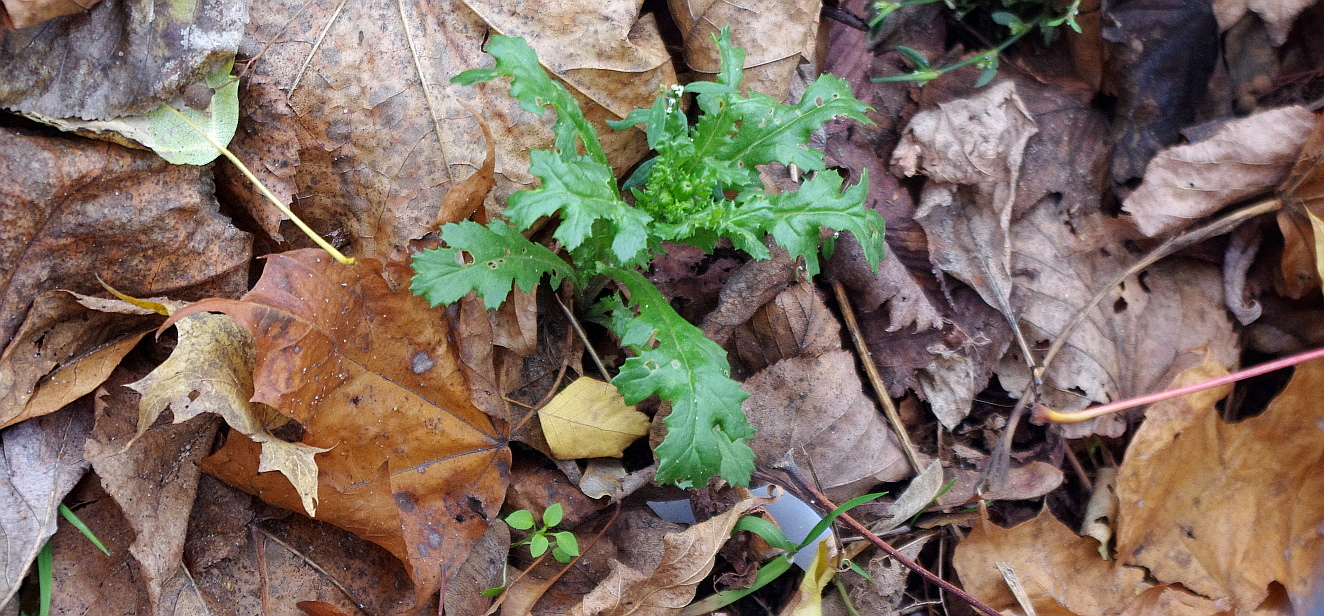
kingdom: Plantae
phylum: Tracheophyta
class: Magnoliopsida
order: Asterales
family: Asteraceae
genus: Senecio
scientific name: Senecio vulgaris
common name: Old-man-in-the-spring
